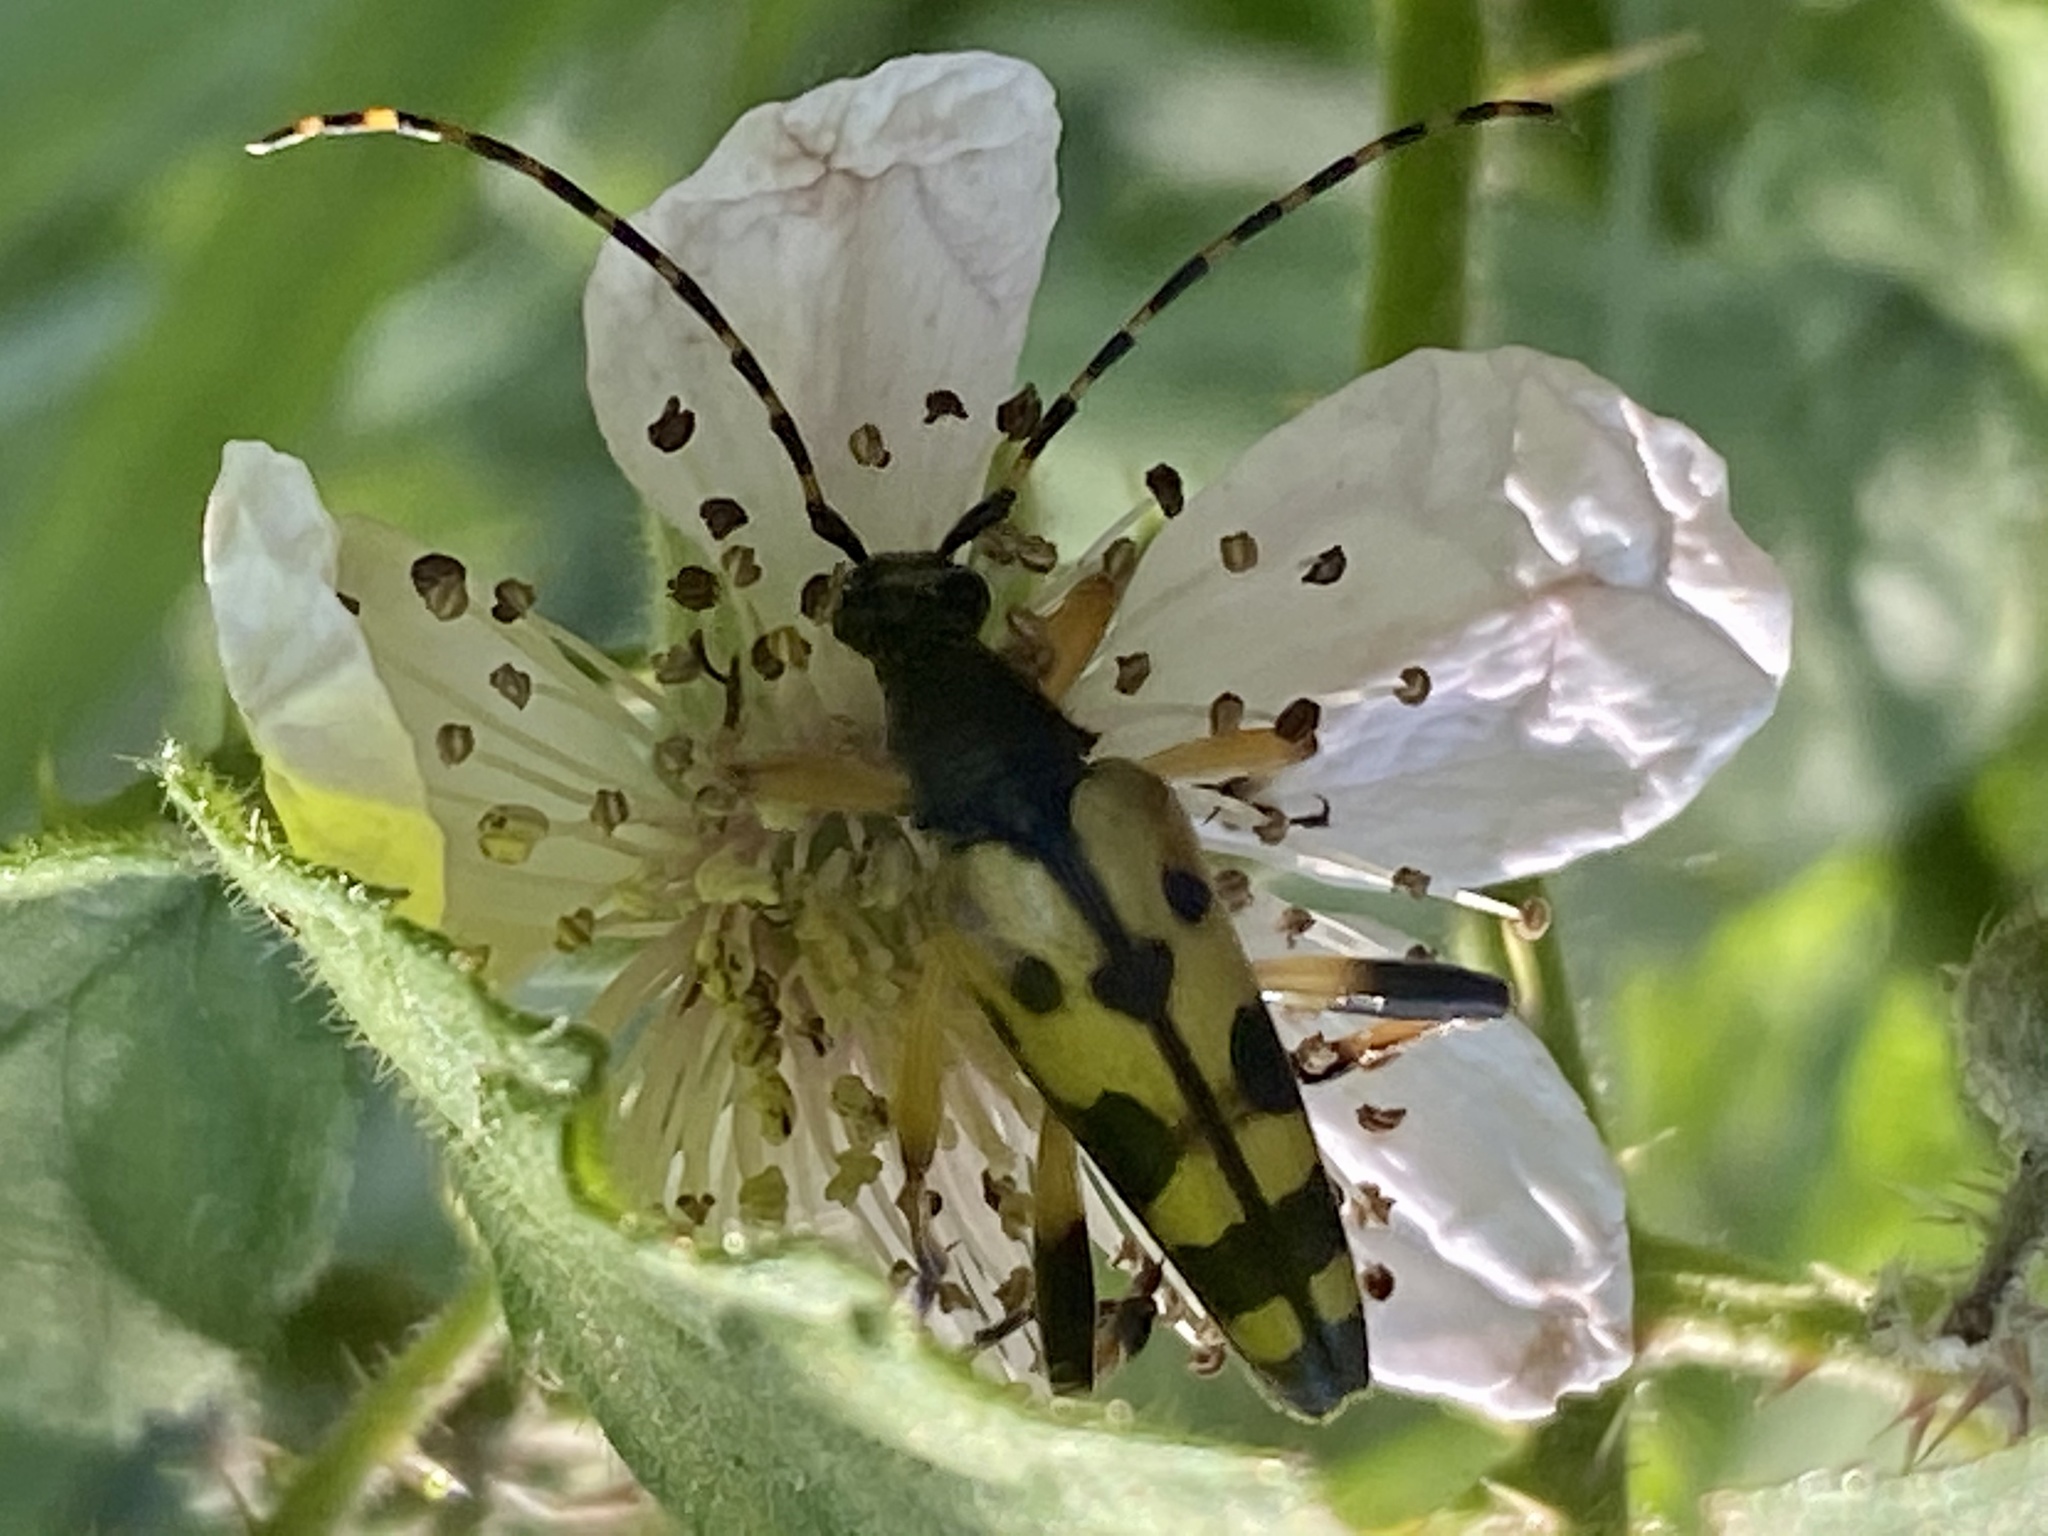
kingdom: Animalia
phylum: Arthropoda
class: Insecta
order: Coleoptera
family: Cerambycidae
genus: Rutpela
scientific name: Rutpela maculata
